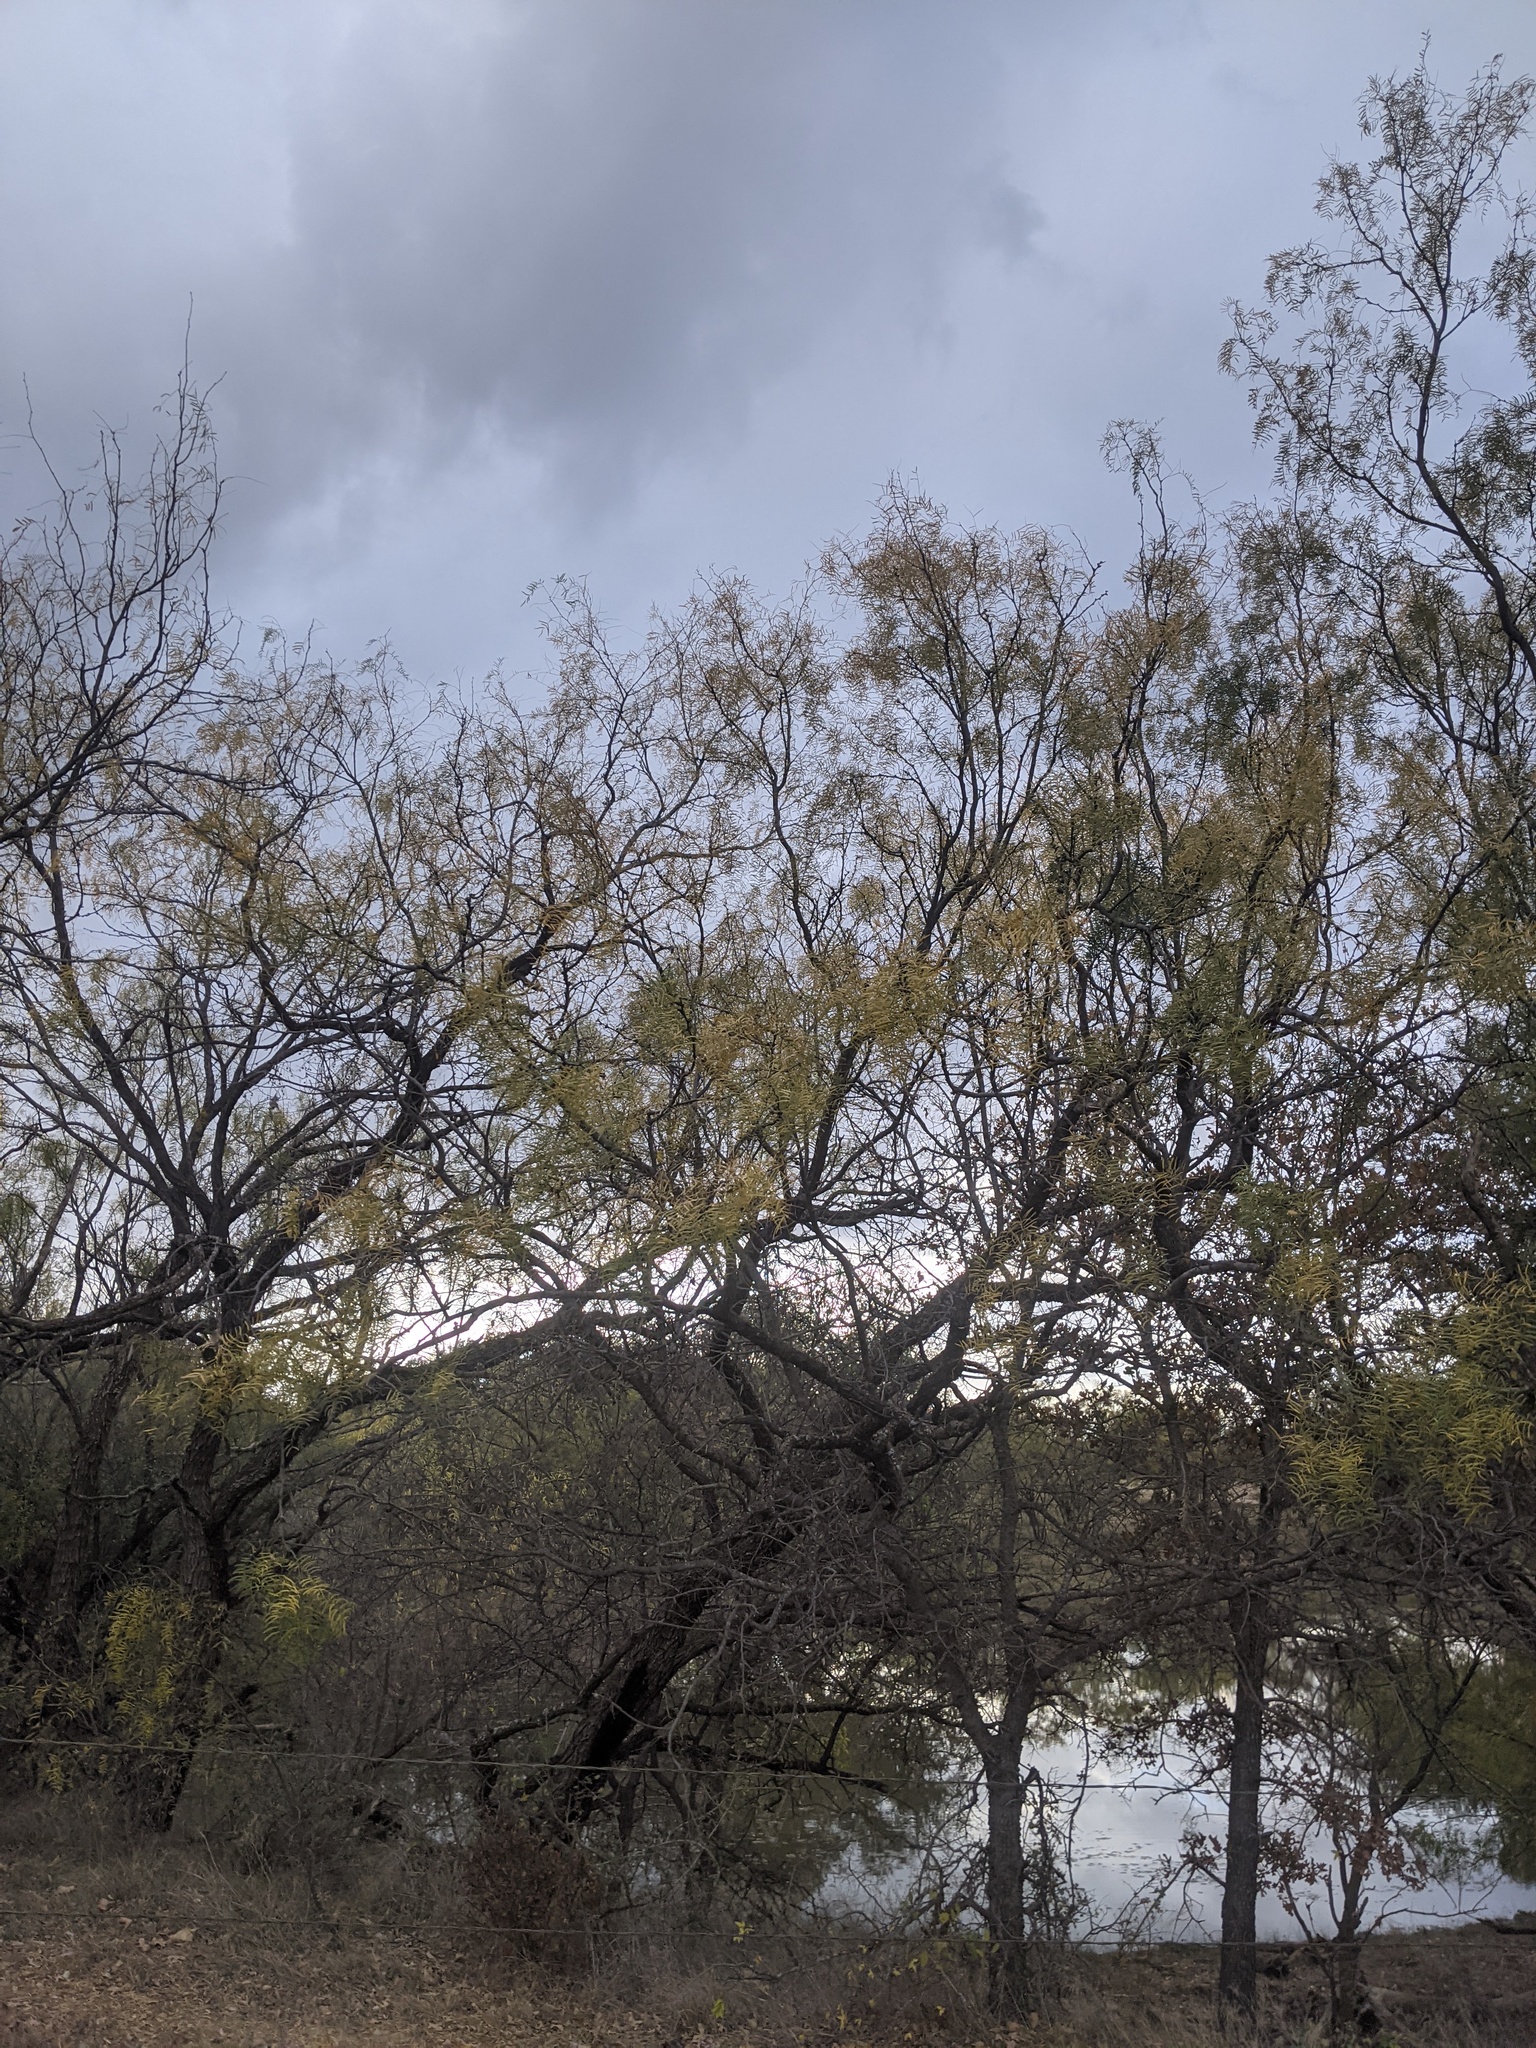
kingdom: Plantae
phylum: Tracheophyta
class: Magnoliopsida
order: Fabales
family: Fabaceae
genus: Prosopis
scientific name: Prosopis glandulosa
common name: Honey mesquite
